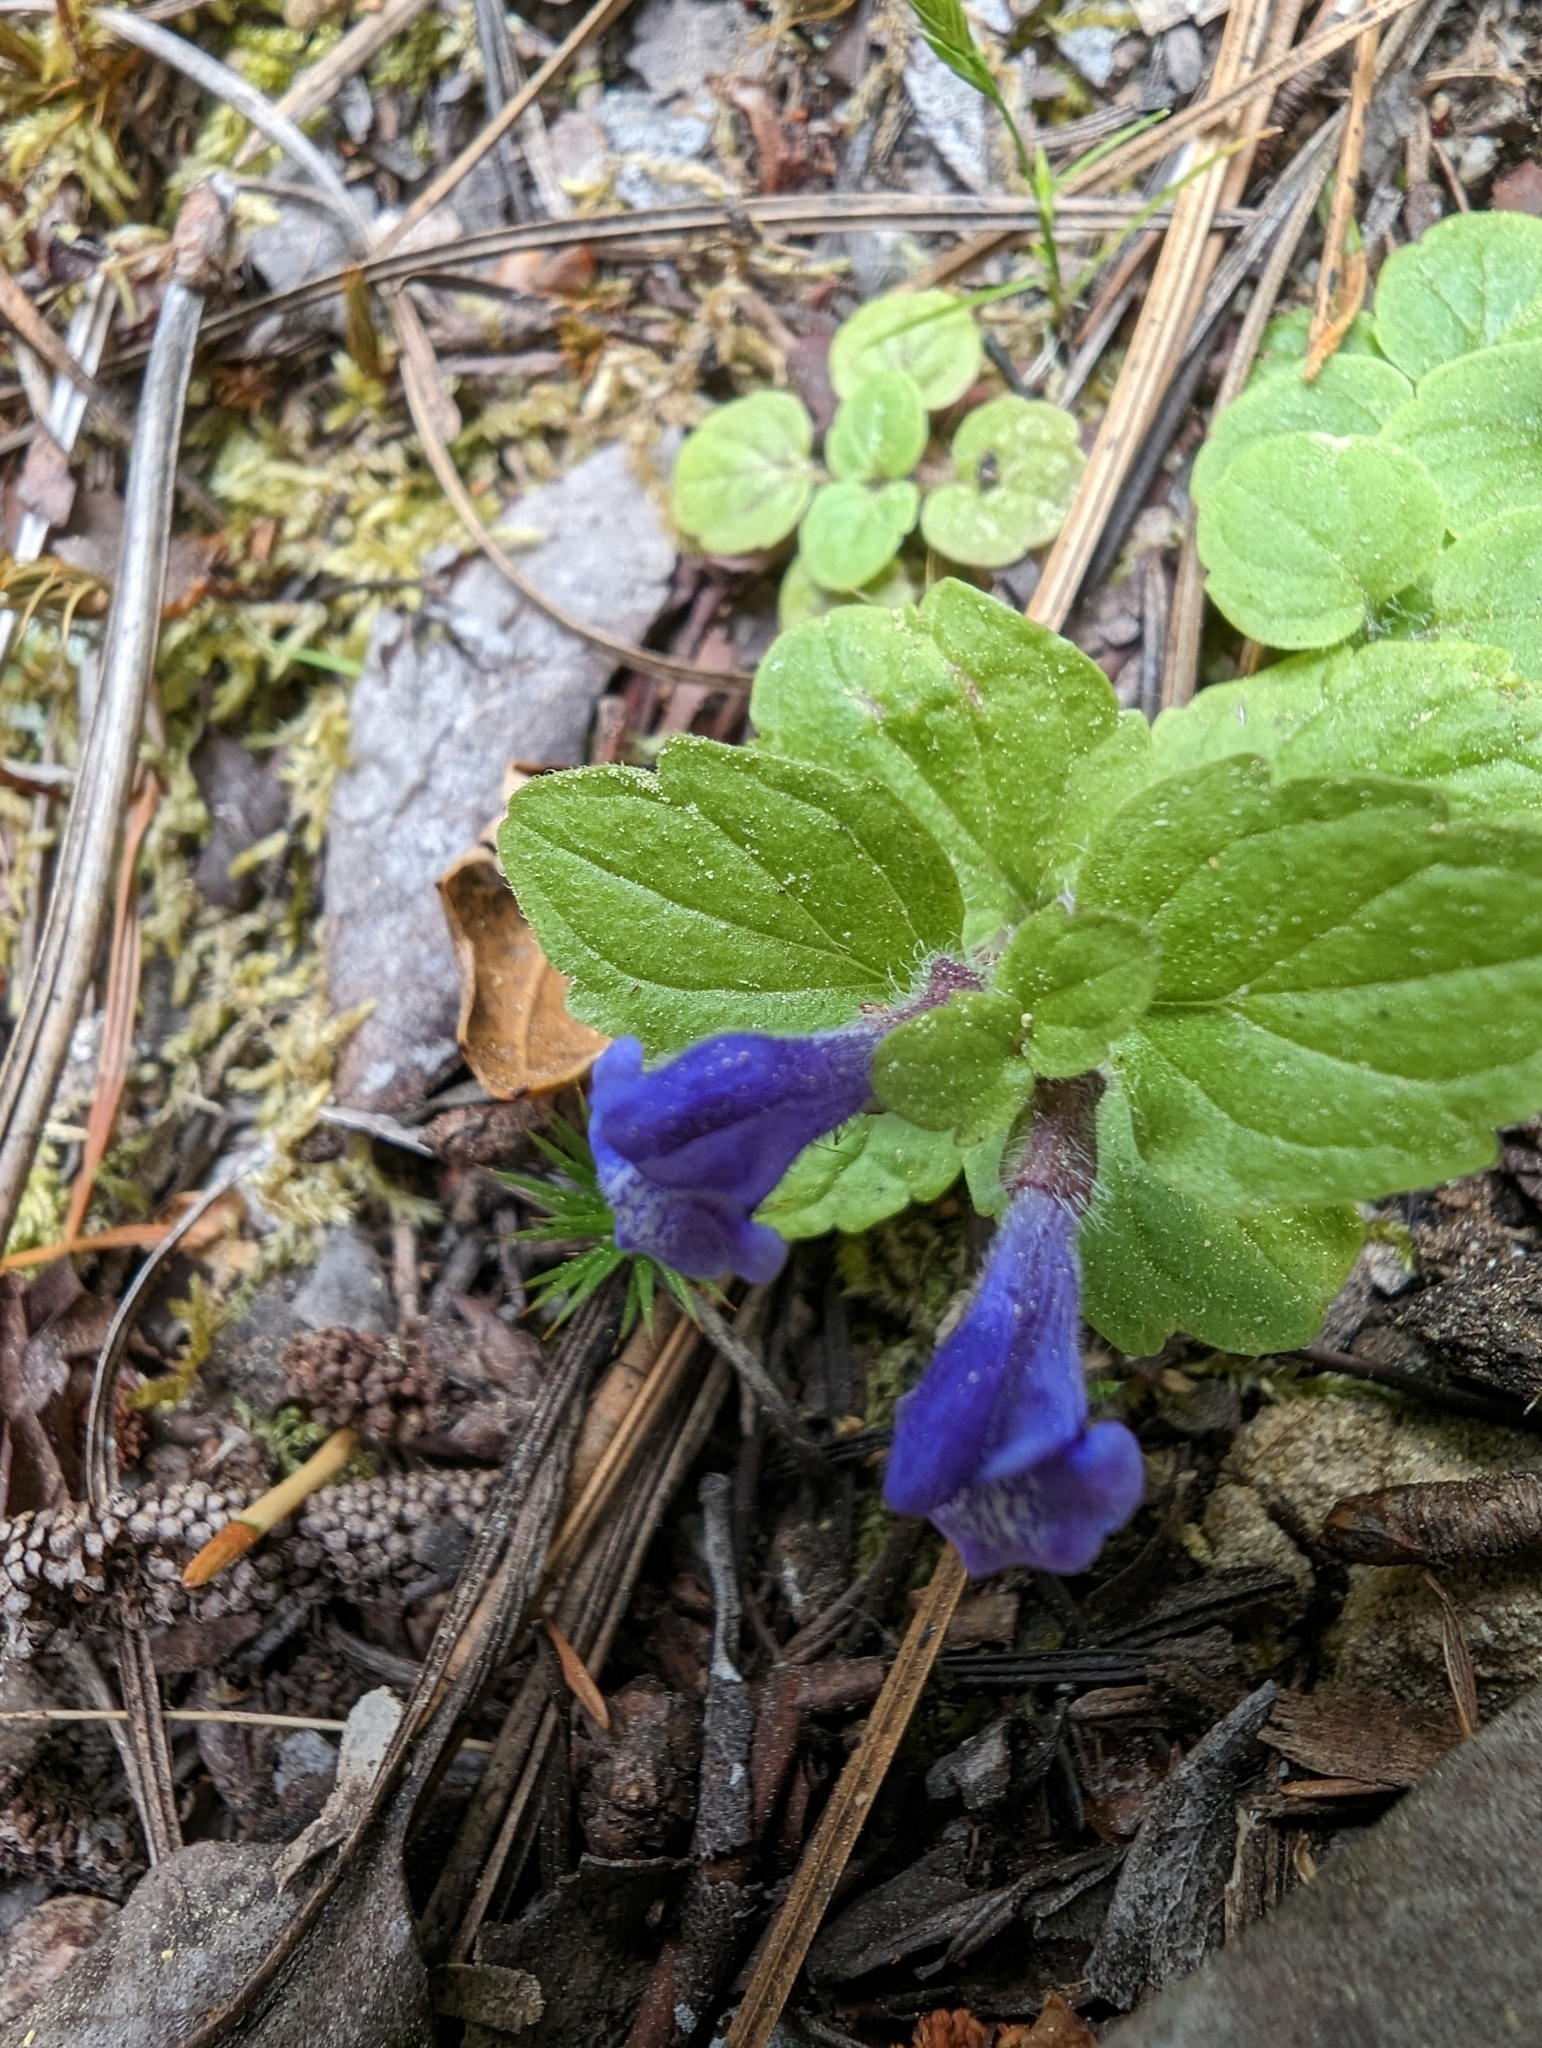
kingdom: Plantae
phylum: Tracheophyta
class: Magnoliopsida
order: Lamiales
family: Lamiaceae
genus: Scutellaria
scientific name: Scutellaria tuberosa
